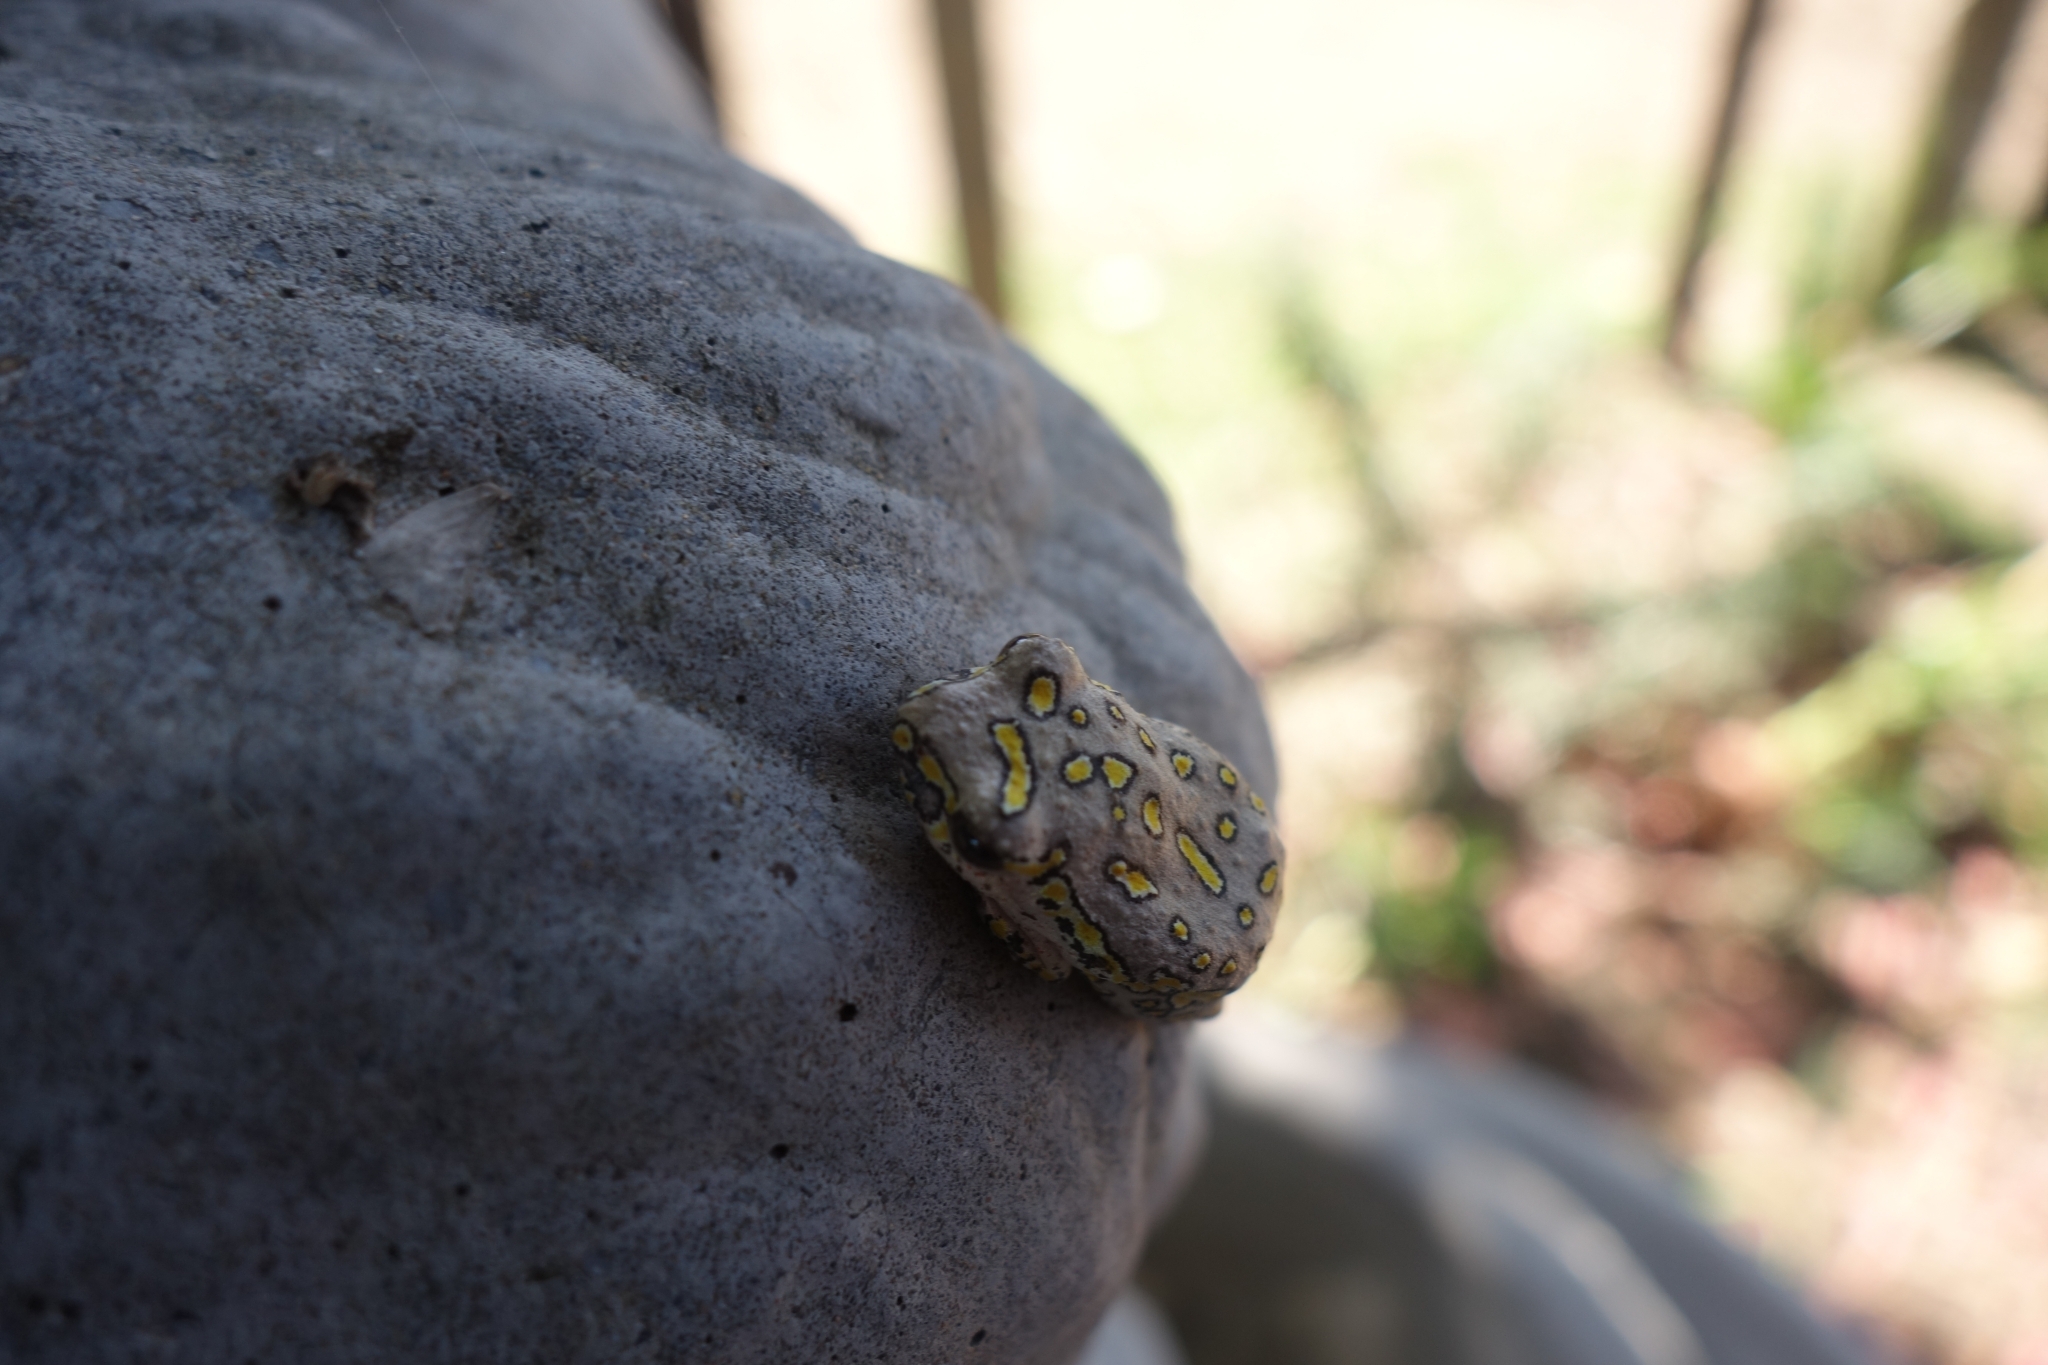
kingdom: Animalia
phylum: Chordata
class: Amphibia
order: Anura
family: Hyperoliidae
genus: Hyperolius
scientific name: Hyperolius marmoratus
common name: Painted reed frog
